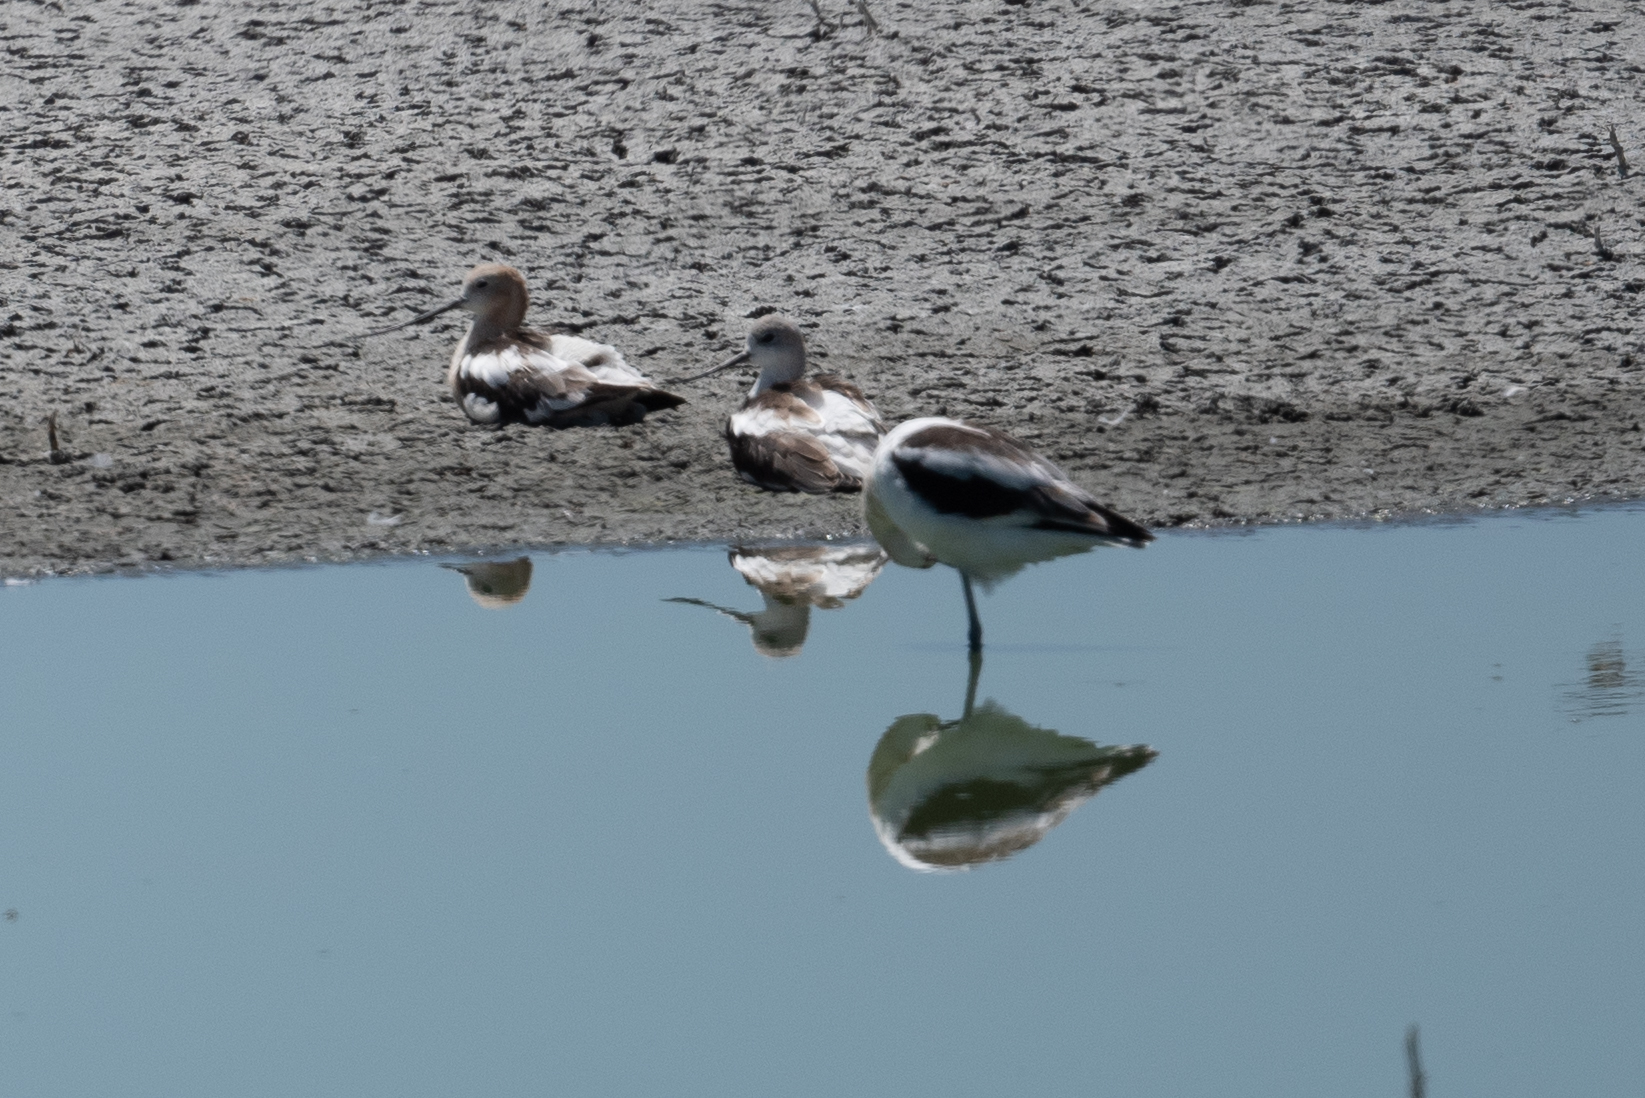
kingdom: Animalia
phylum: Chordata
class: Aves
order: Charadriiformes
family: Recurvirostridae
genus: Recurvirostra
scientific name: Recurvirostra americana
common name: American avocet
